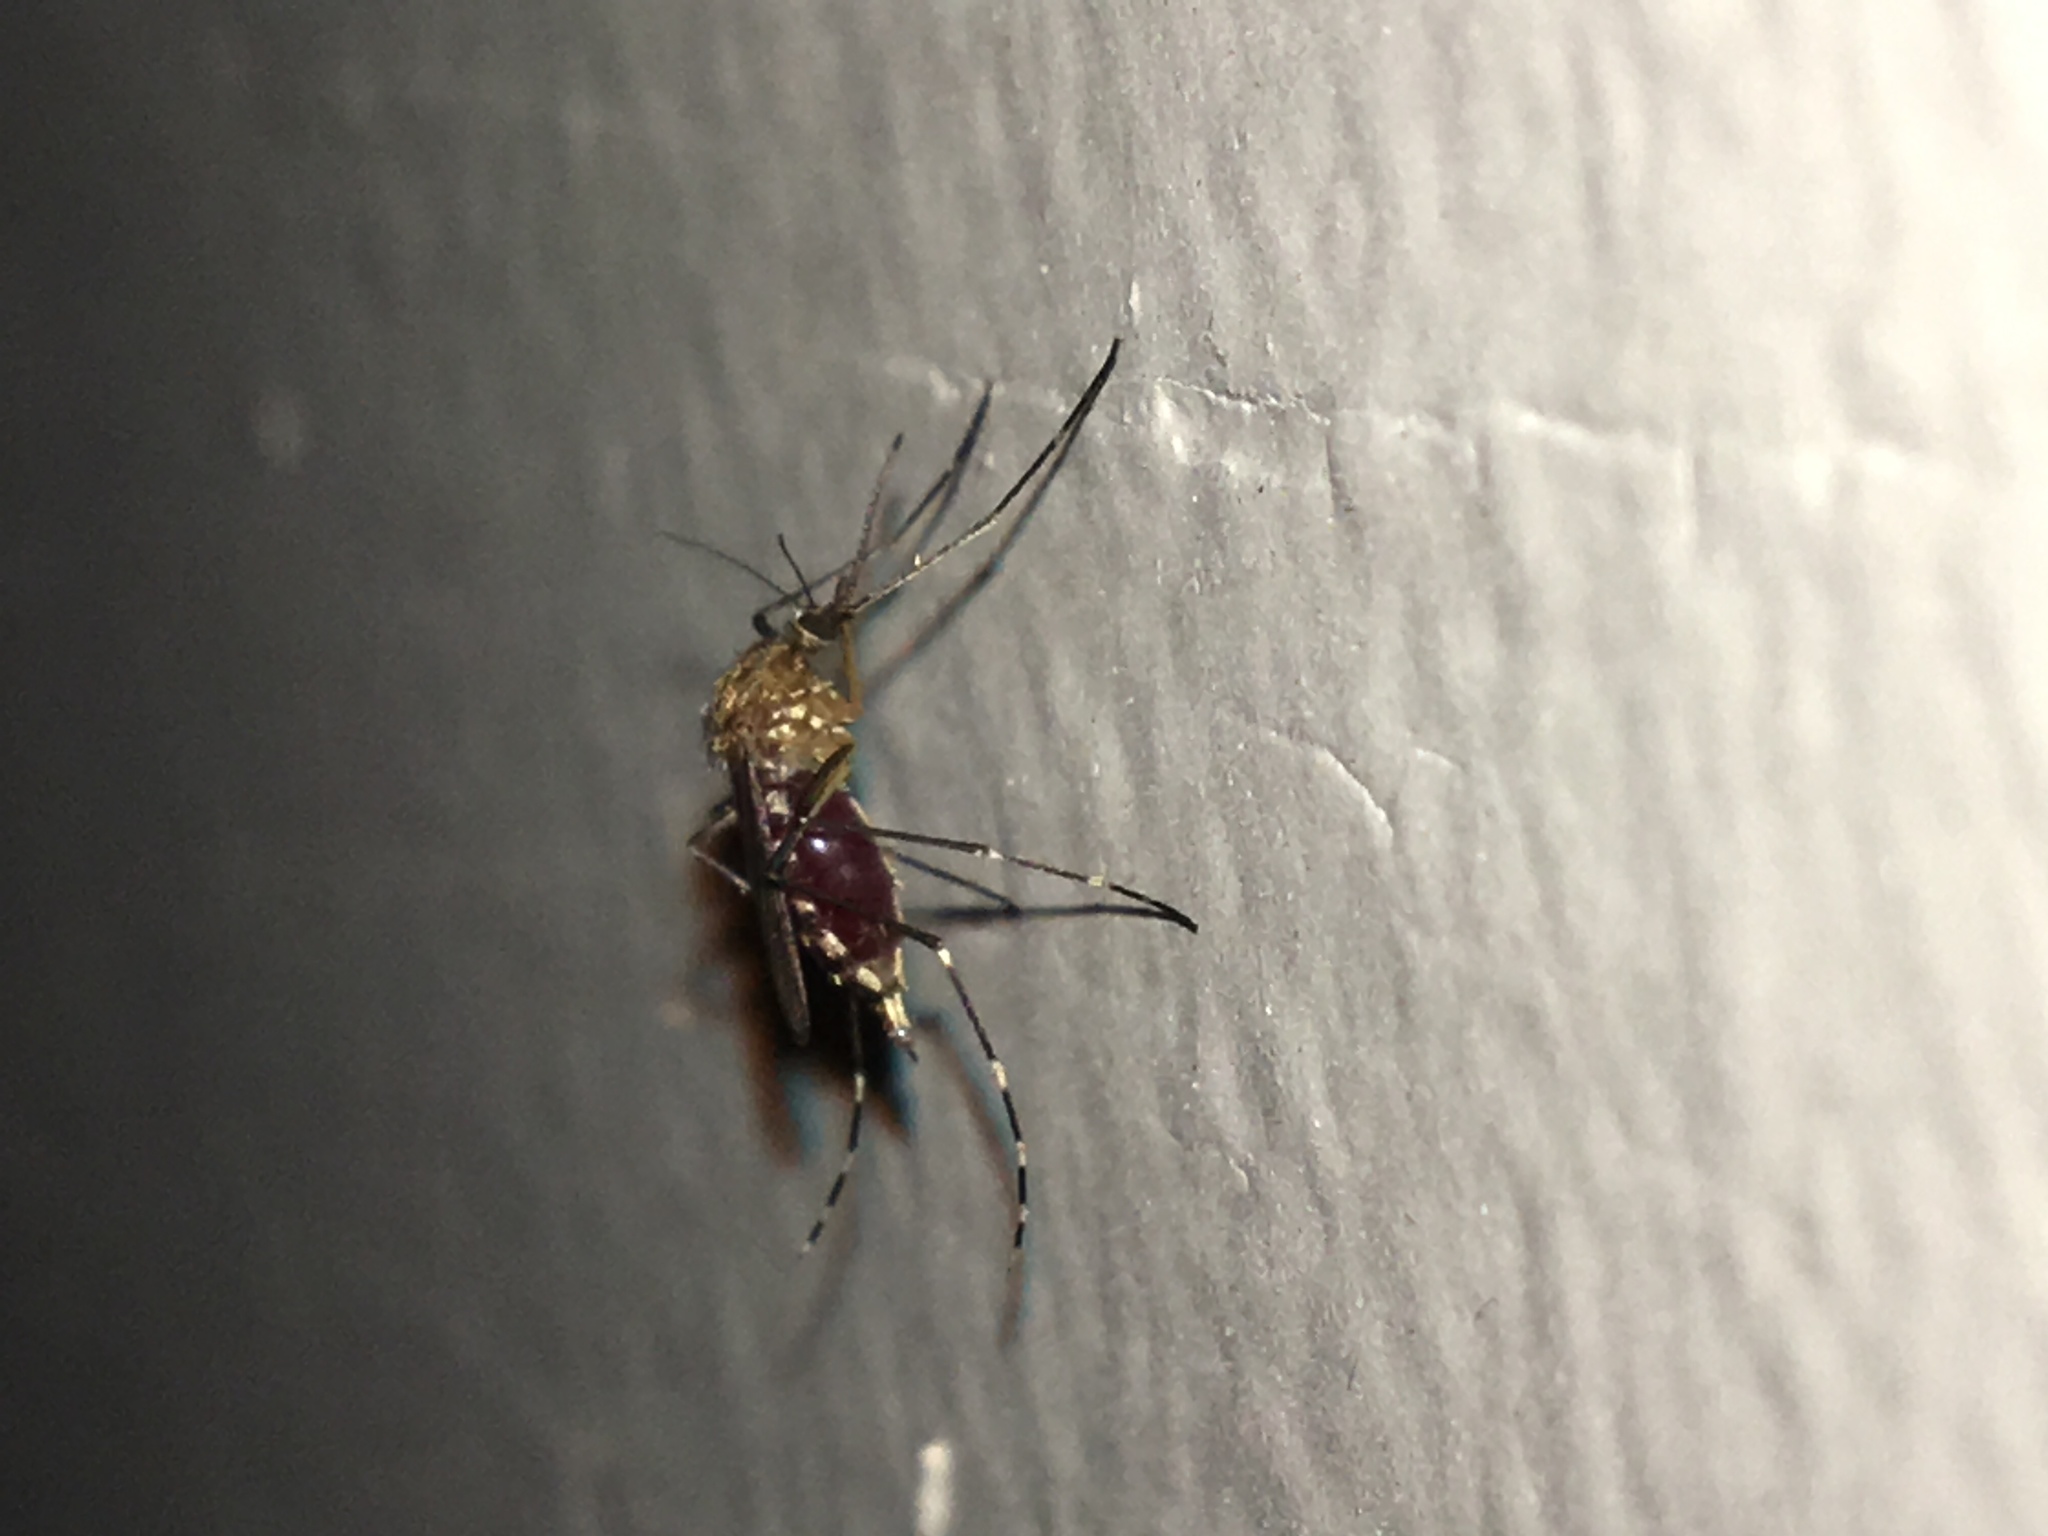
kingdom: Animalia
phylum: Arthropoda
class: Insecta
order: Diptera
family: Culicidae
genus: Aedes
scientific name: Aedes canadensis
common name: Woodland pool mosquito
